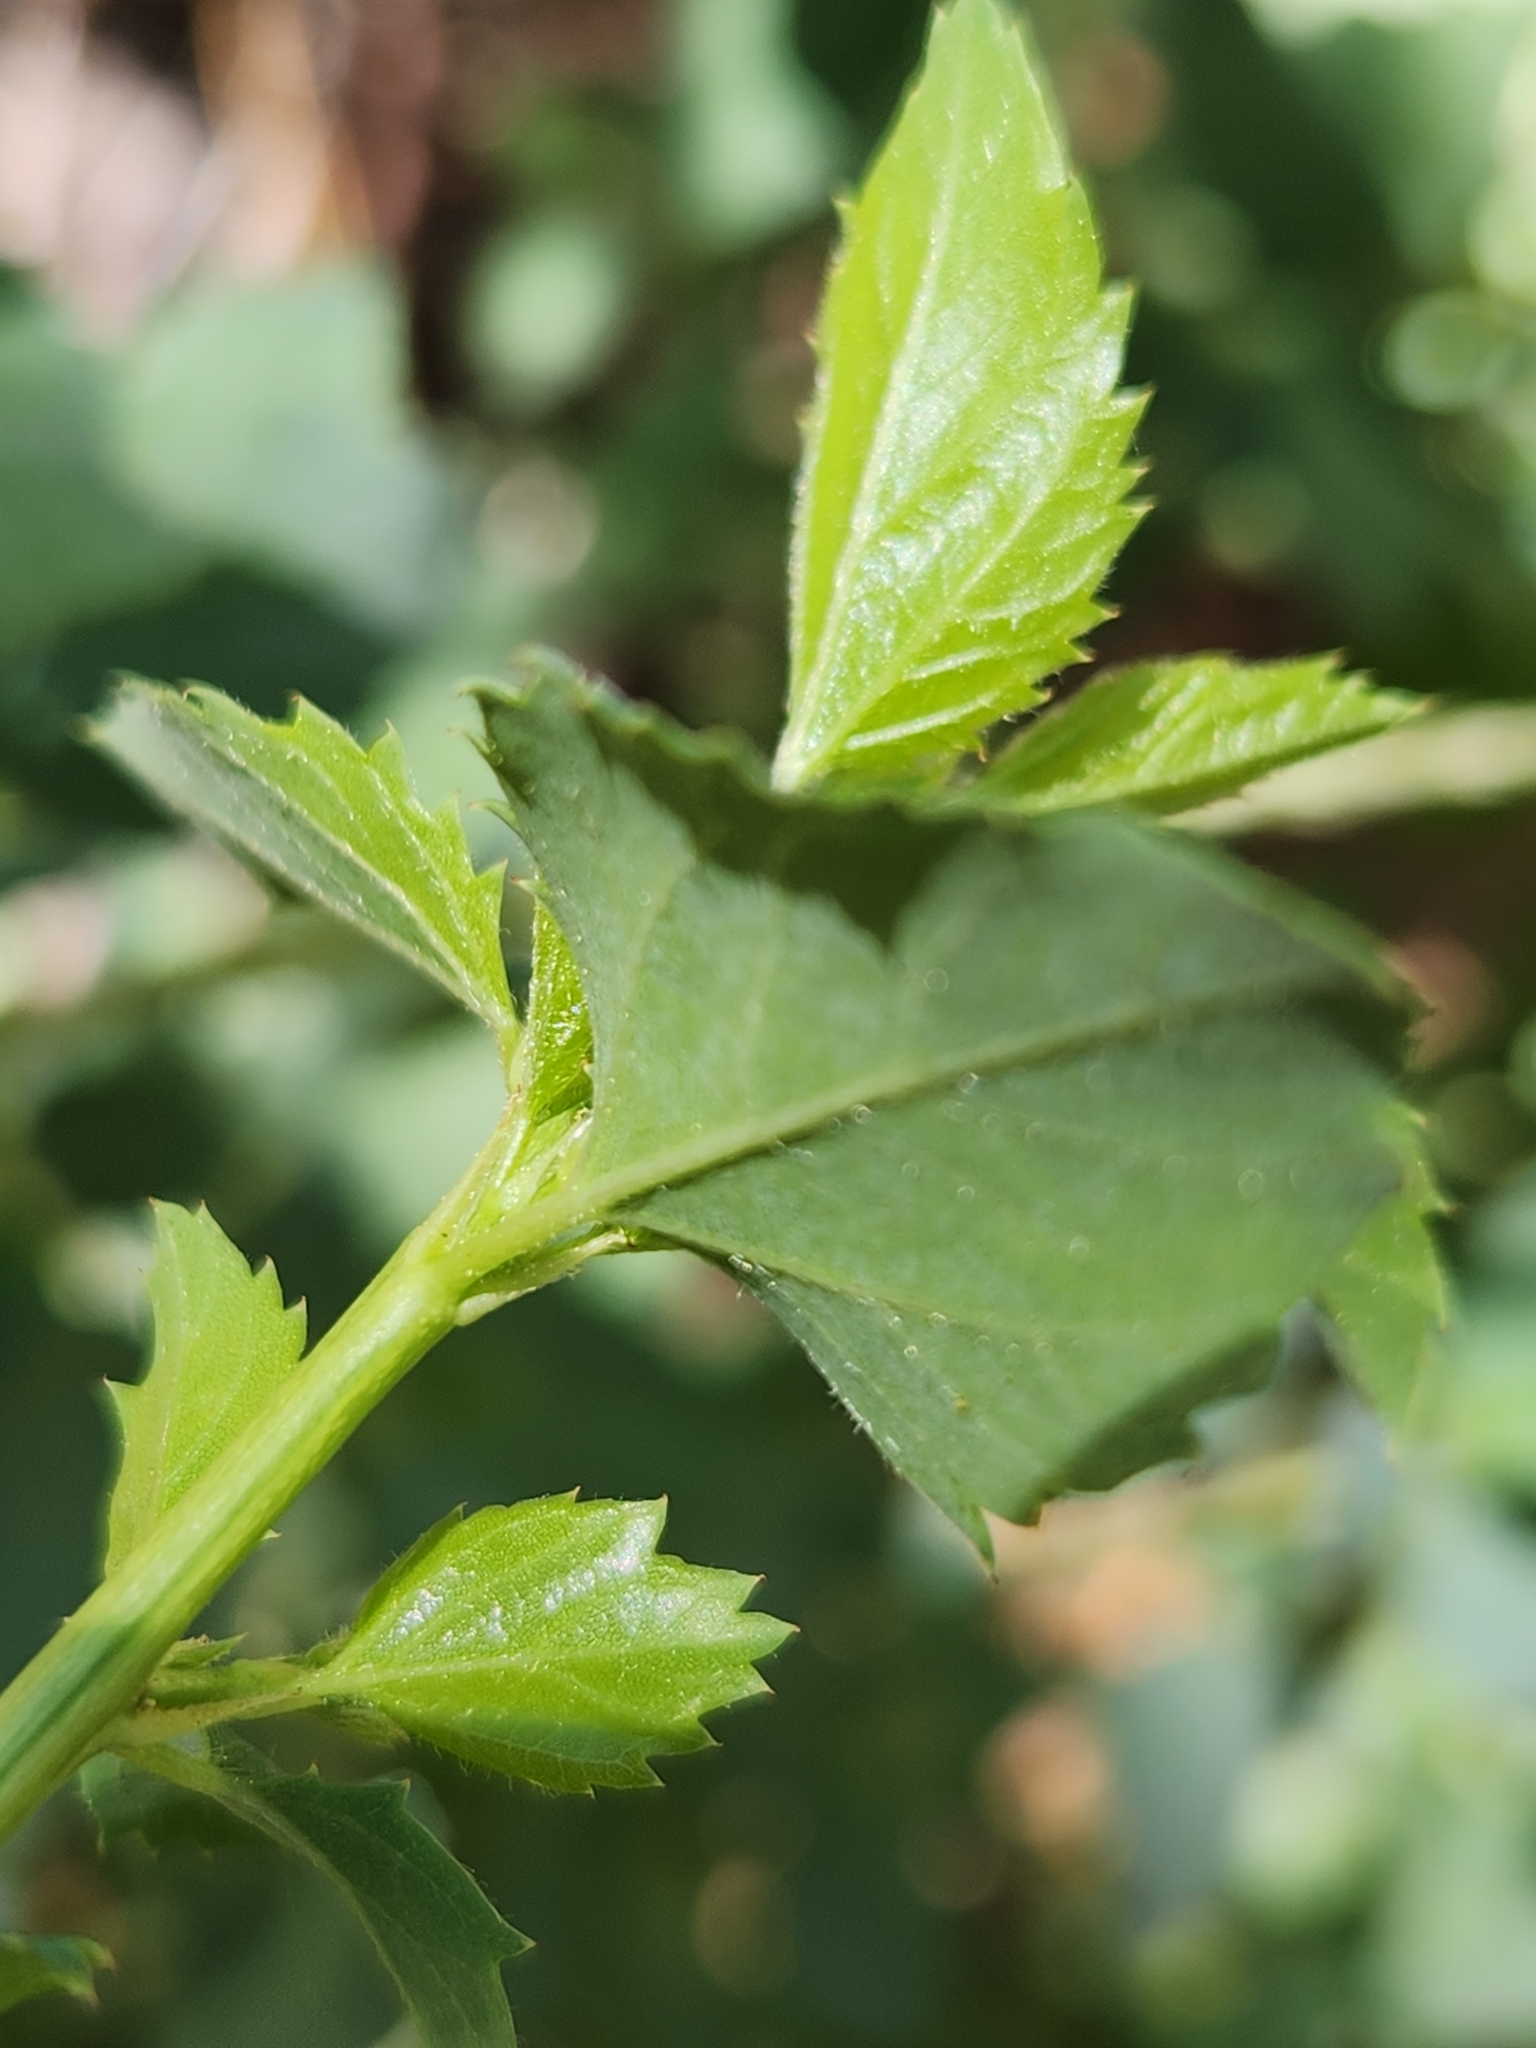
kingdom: Plantae
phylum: Tracheophyta
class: Magnoliopsida
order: Rosales
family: Rhamnaceae
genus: Ceanothus
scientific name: Ceanothus leucodermis
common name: Chaparral whitethorn
